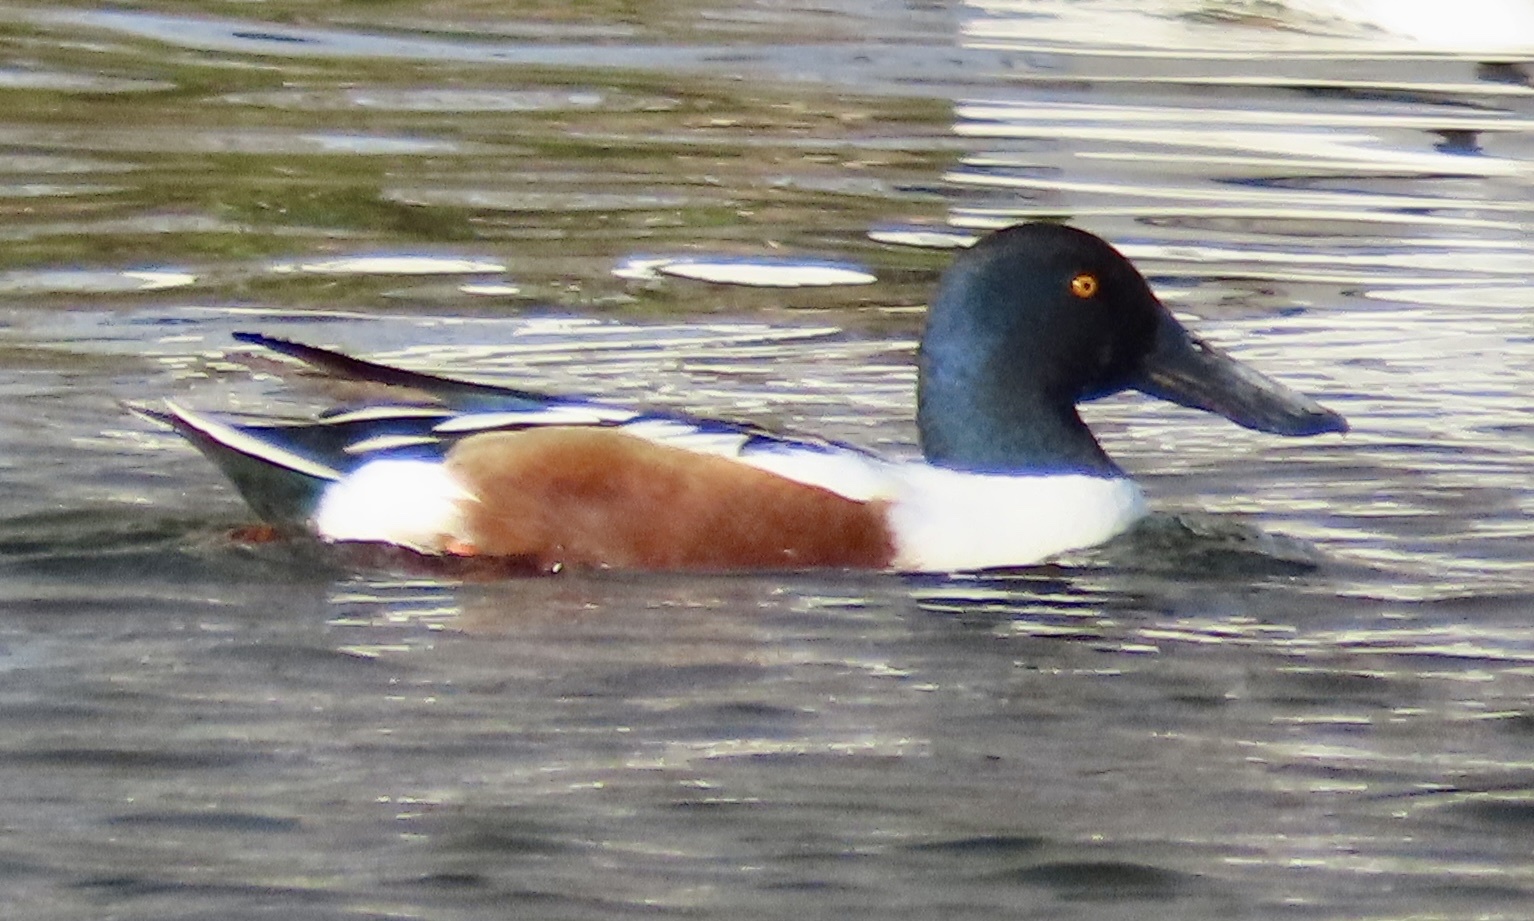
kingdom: Animalia
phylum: Chordata
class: Aves
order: Anseriformes
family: Anatidae
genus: Spatula
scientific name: Spatula clypeata
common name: Northern shoveler
